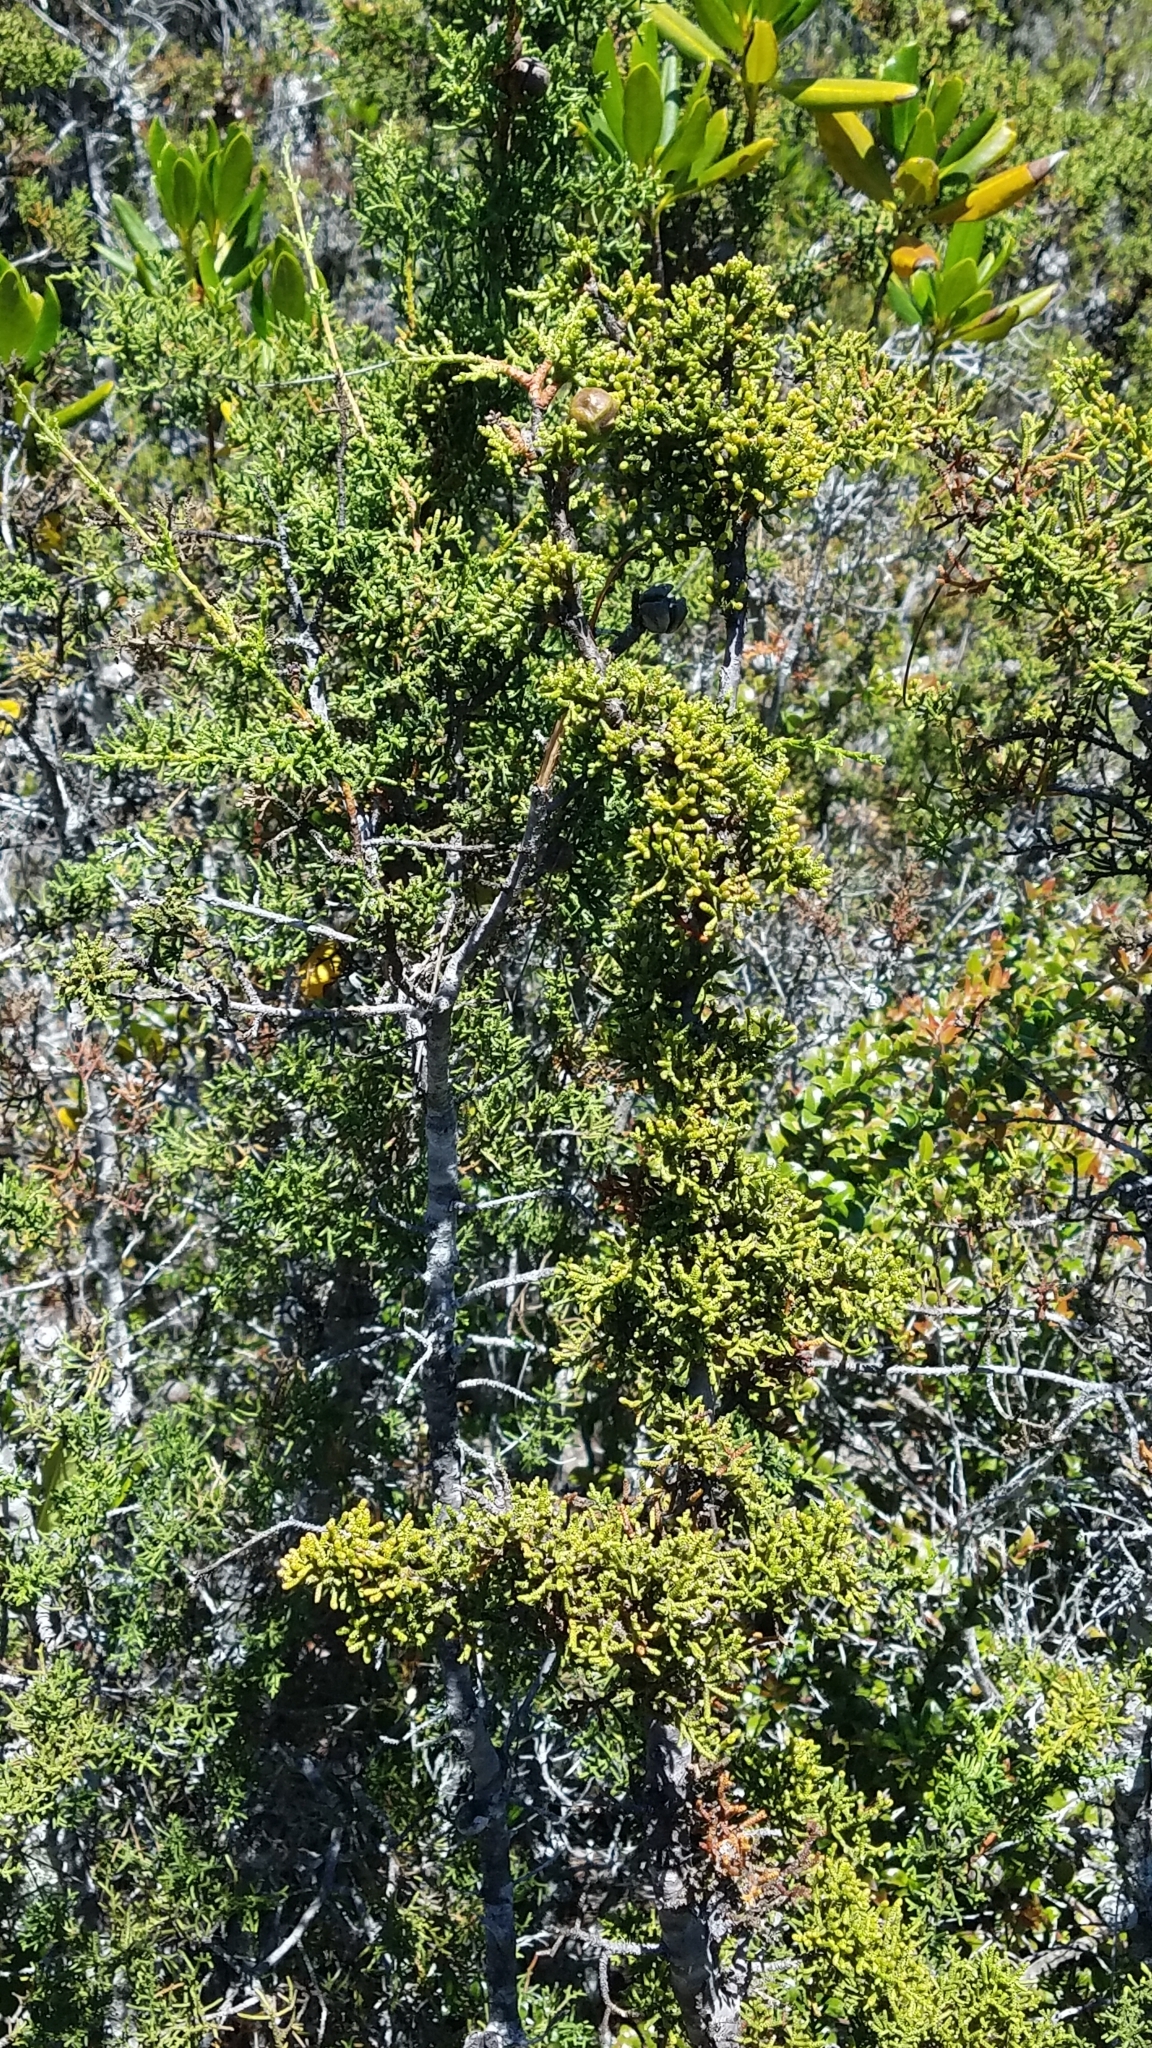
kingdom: Plantae
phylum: Tracheophyta
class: Pinopsida
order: Pinales
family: Cupressaceae
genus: Cupressus
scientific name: Cupressus goveniana
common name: Gowen cypress
